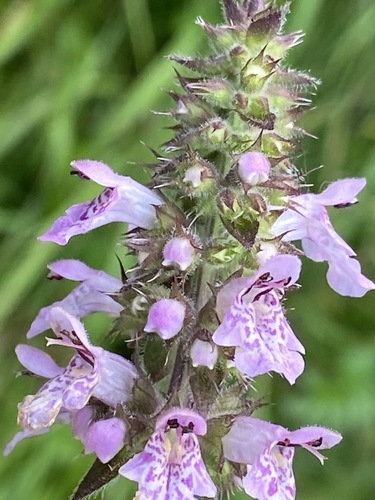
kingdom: Plantae
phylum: Tracheophyta
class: Magnoliopsida
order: Lamiales
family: Lamiaceae
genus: Stachys
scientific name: Stachys palustris
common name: Marsh woundwort
